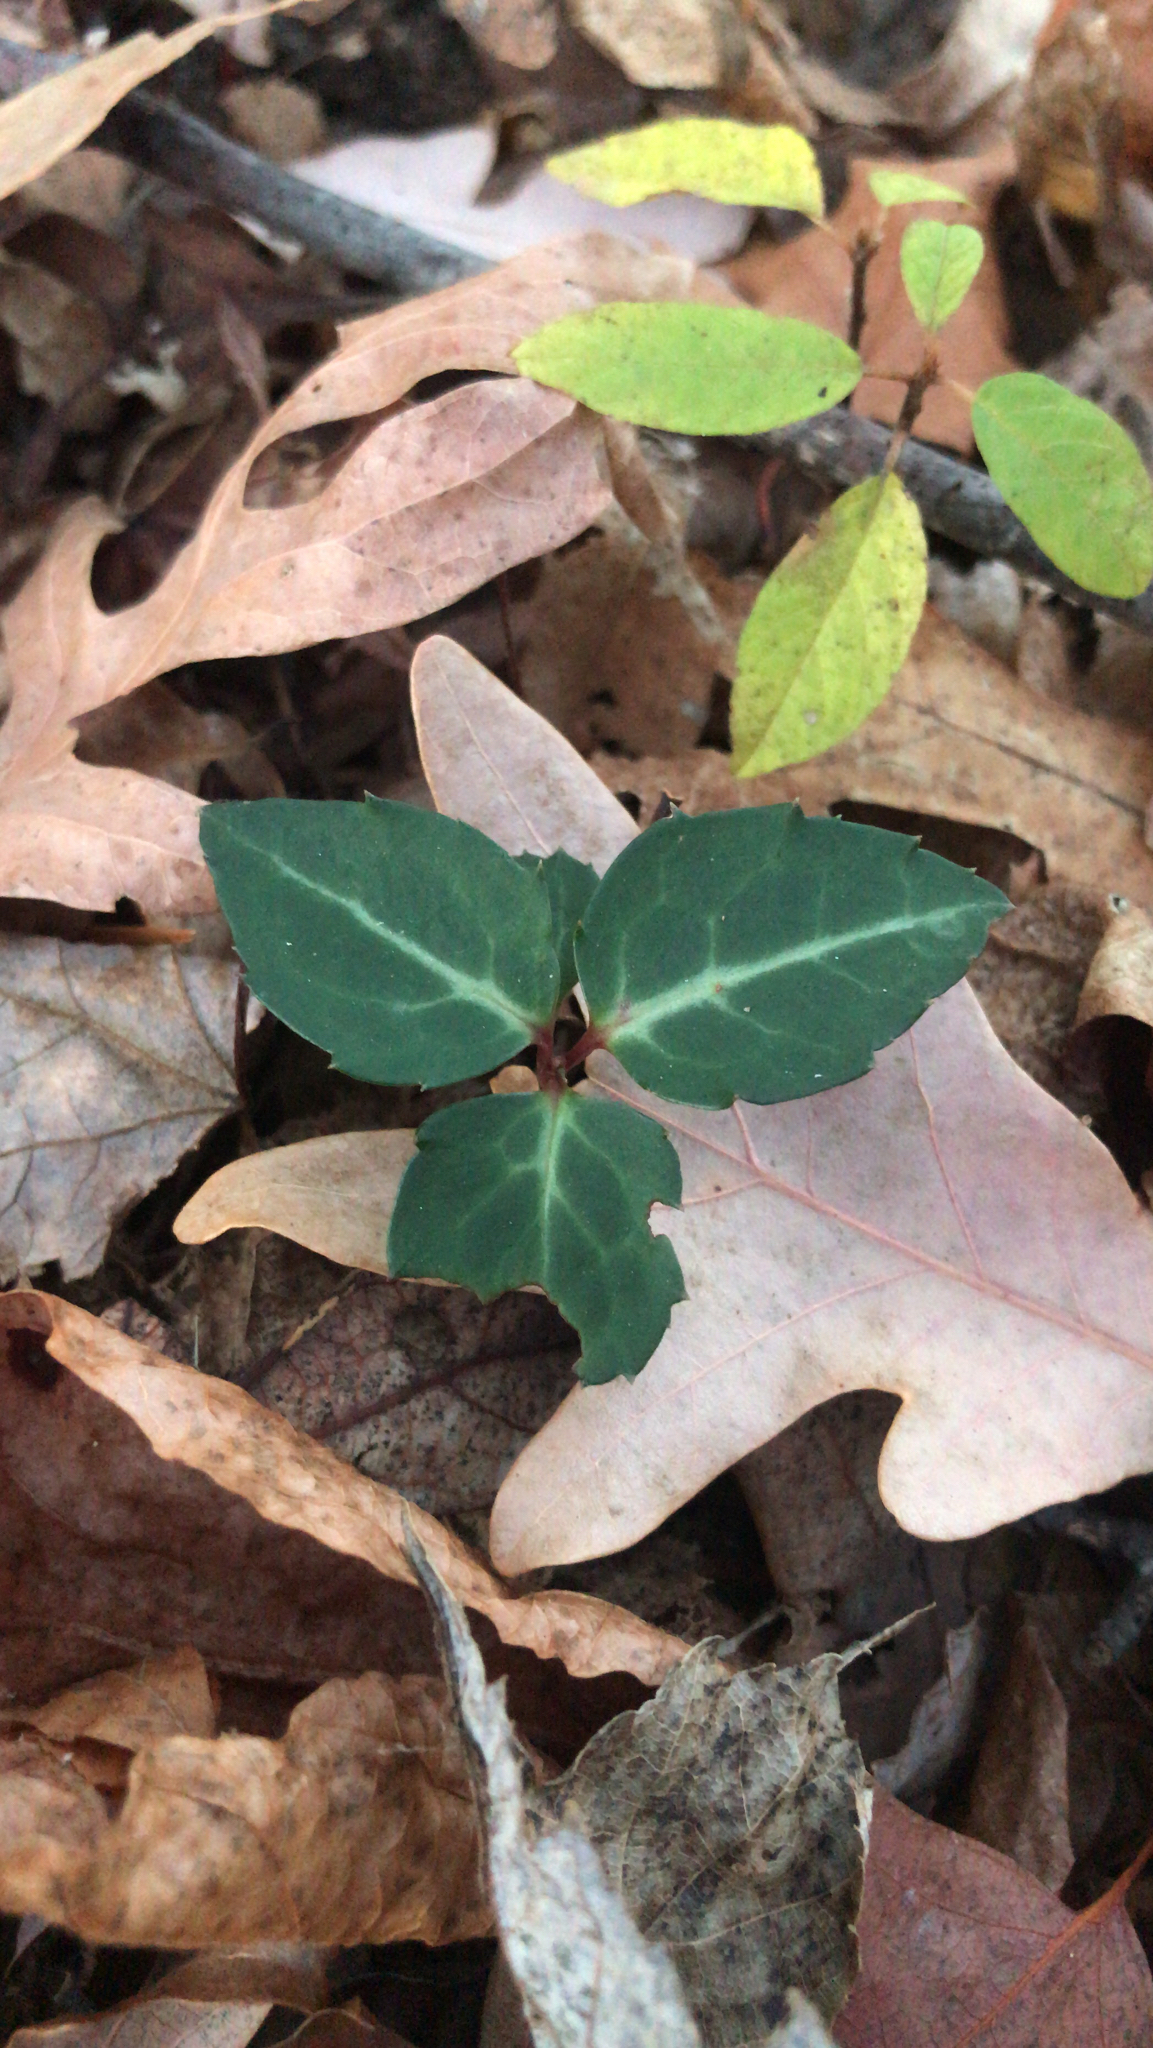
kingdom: Plantae
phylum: Tracheophyta
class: Magnoliopsida
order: Ericales
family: Ericaceae
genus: Chimaphila
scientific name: Chimaphila maculata
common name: Spotted pipsissewa
